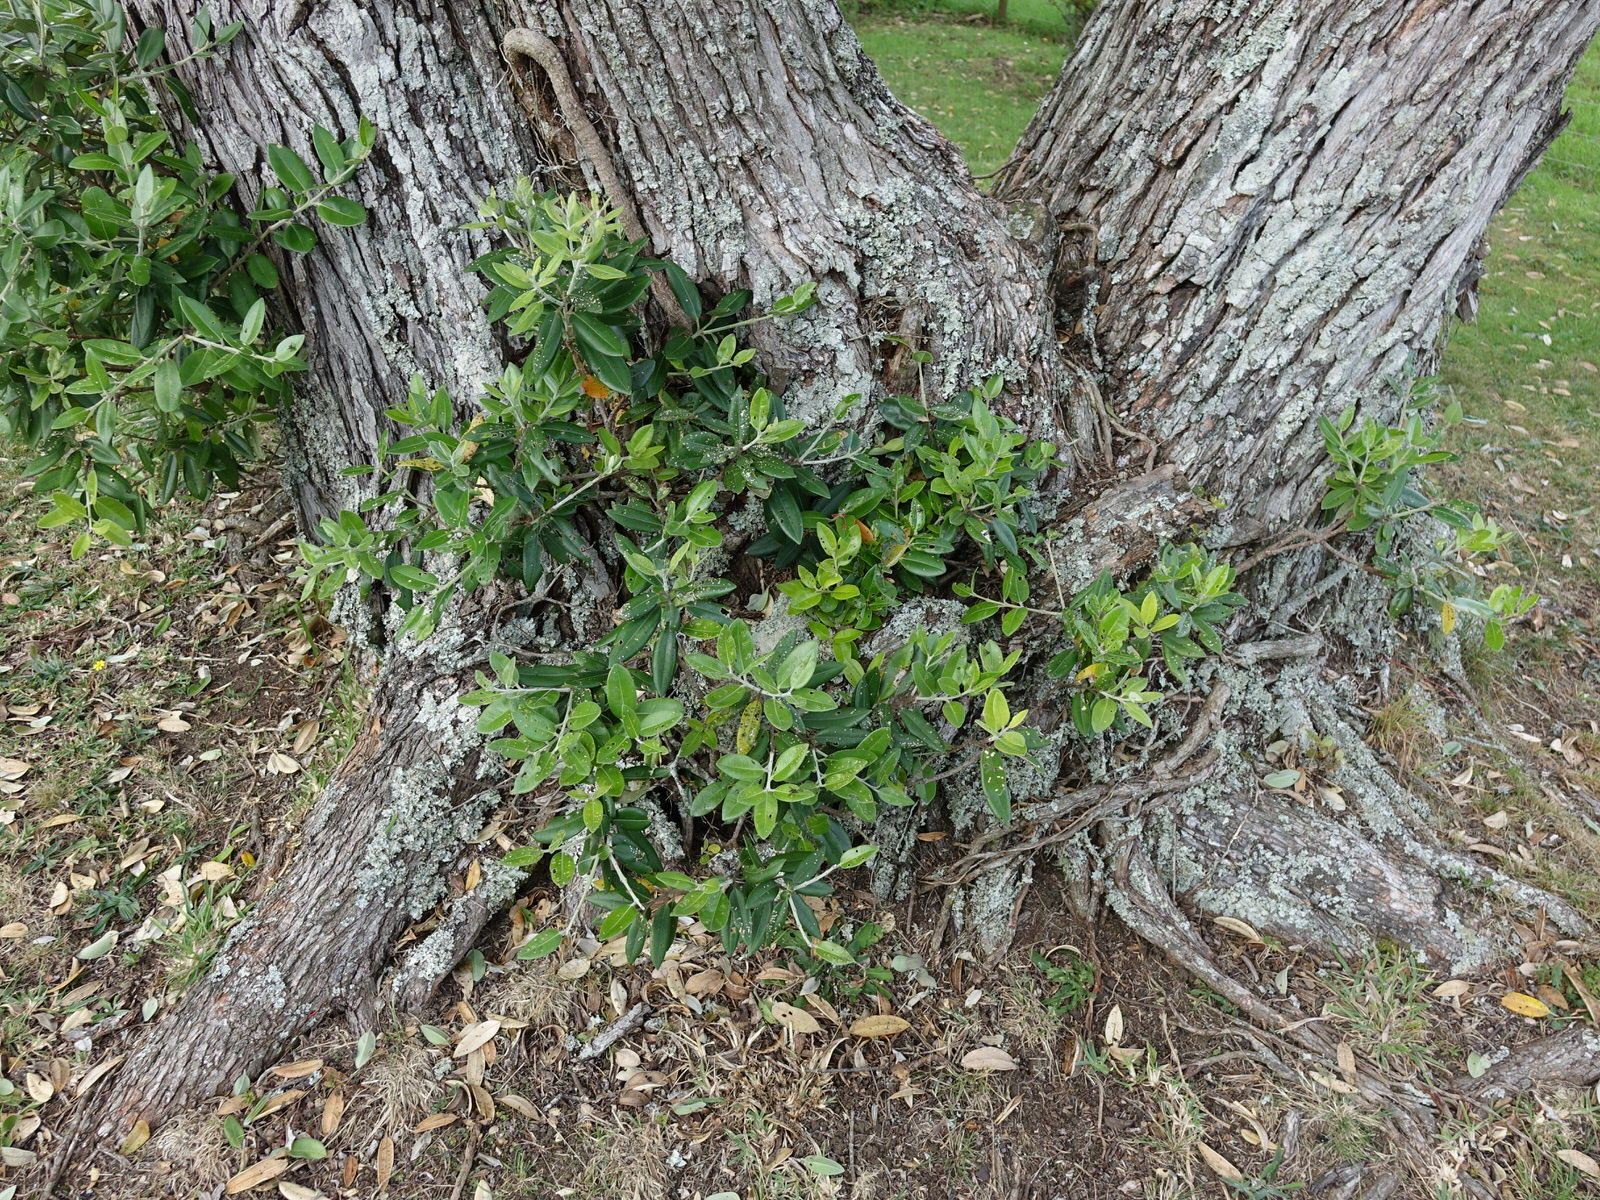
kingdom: Animalia
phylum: Arthropoda
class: Insecta
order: Diptera
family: Tachinidae
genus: Trigonospila
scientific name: Trigonospila brevifacies
